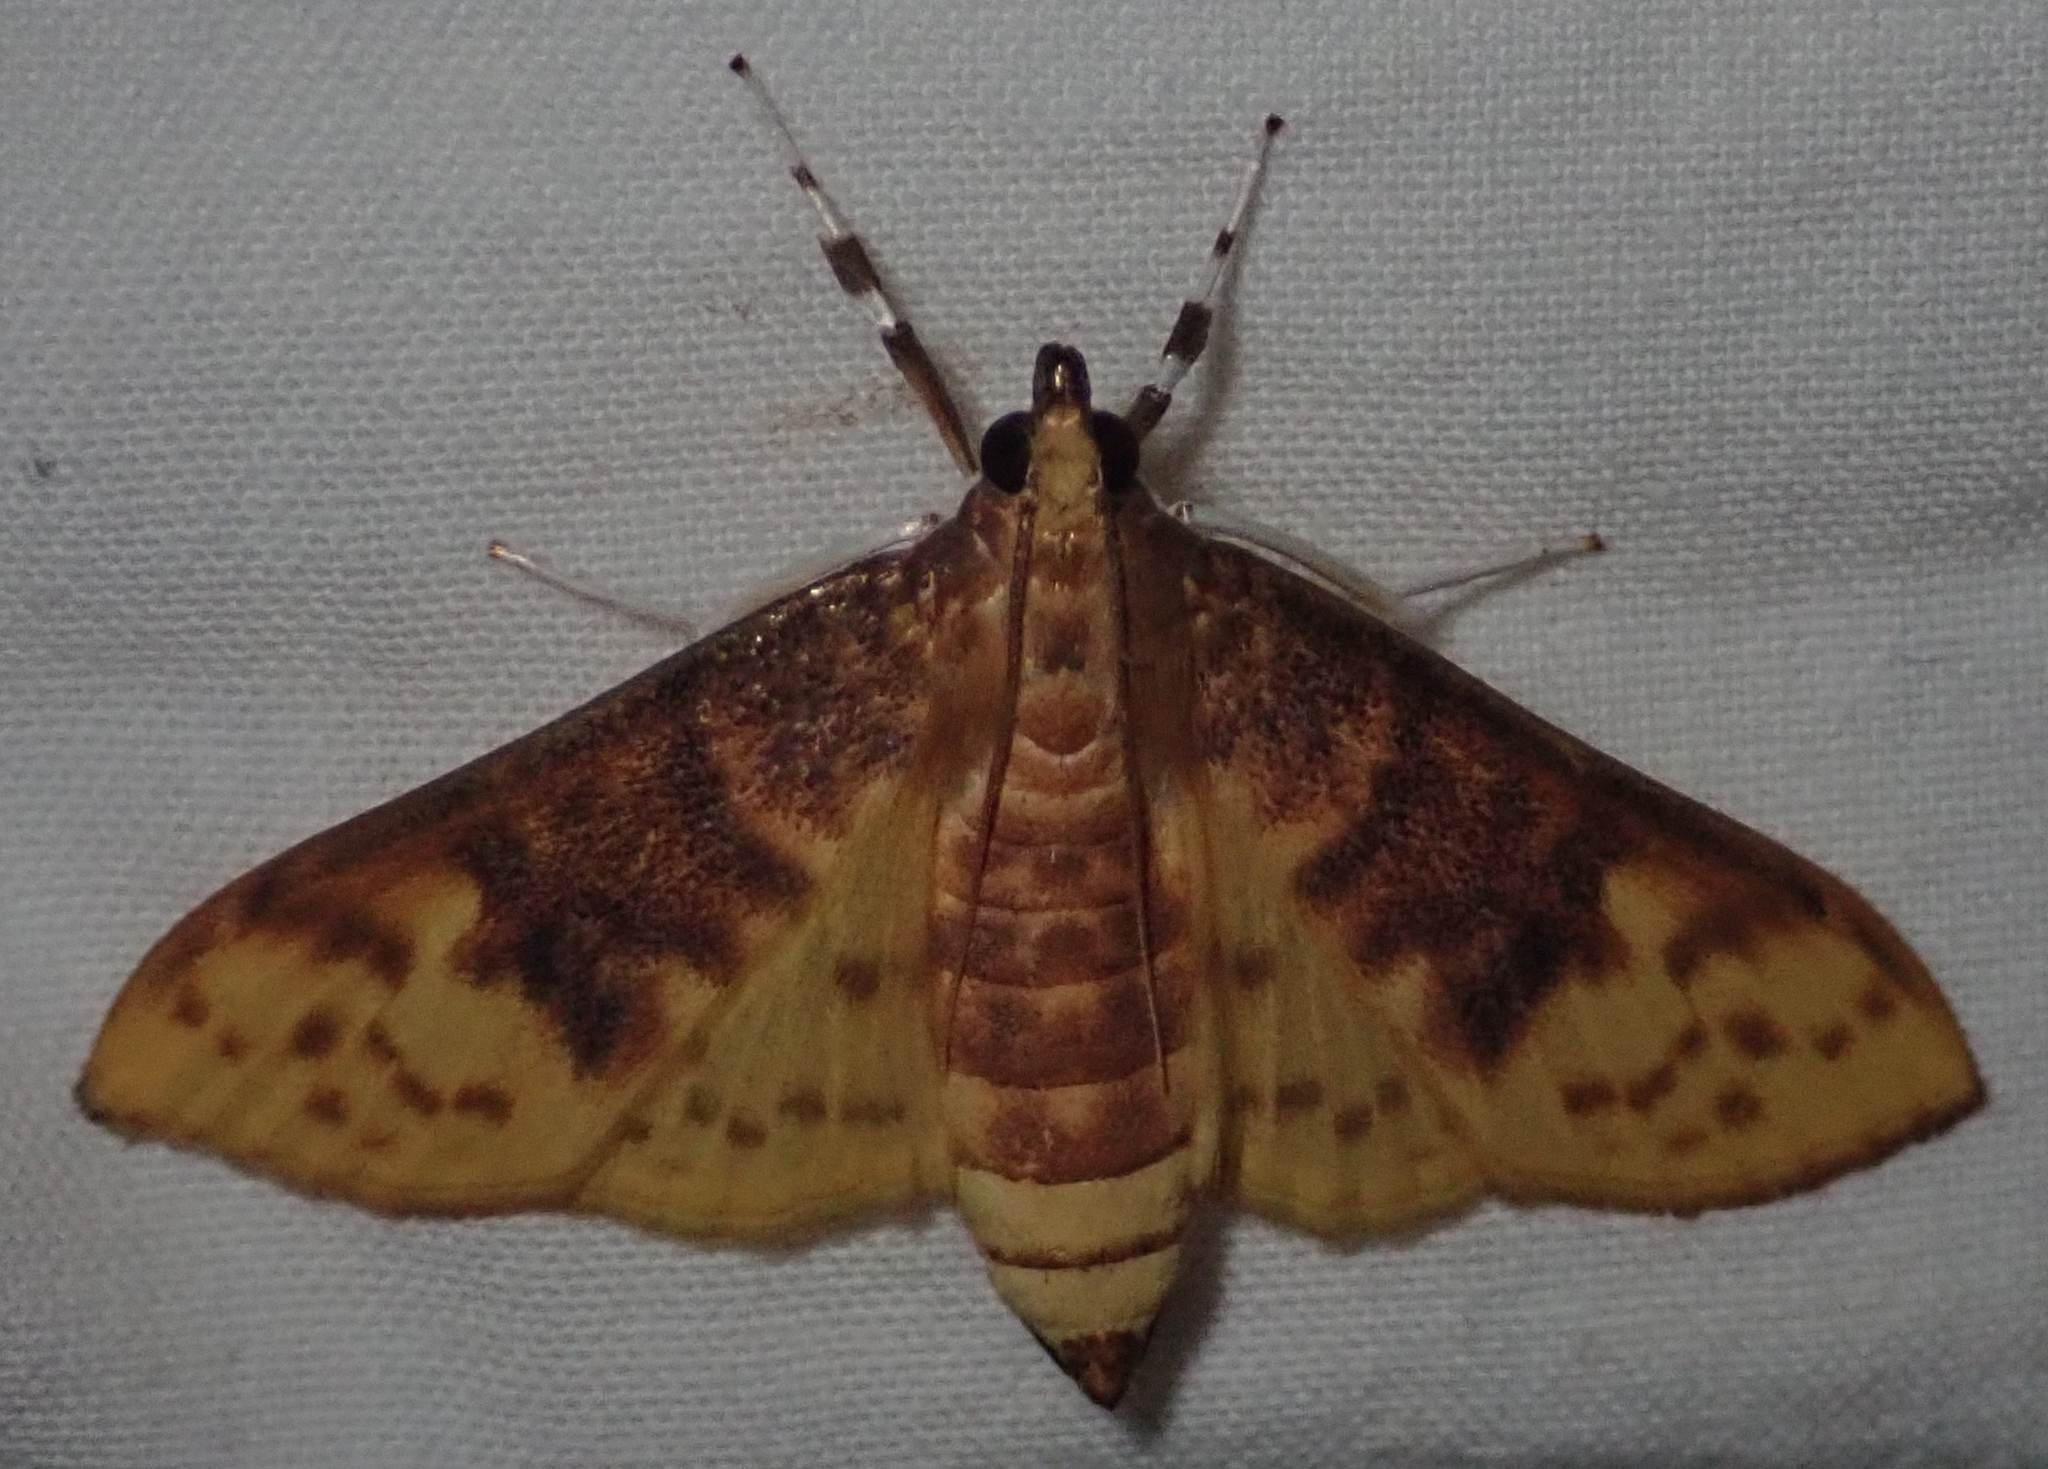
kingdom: Animalia
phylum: Arthropoda
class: Insecta
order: Lepidoptera
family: Crambidae
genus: Ghesquierellana
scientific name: Ghesquierellana hirtusalis
